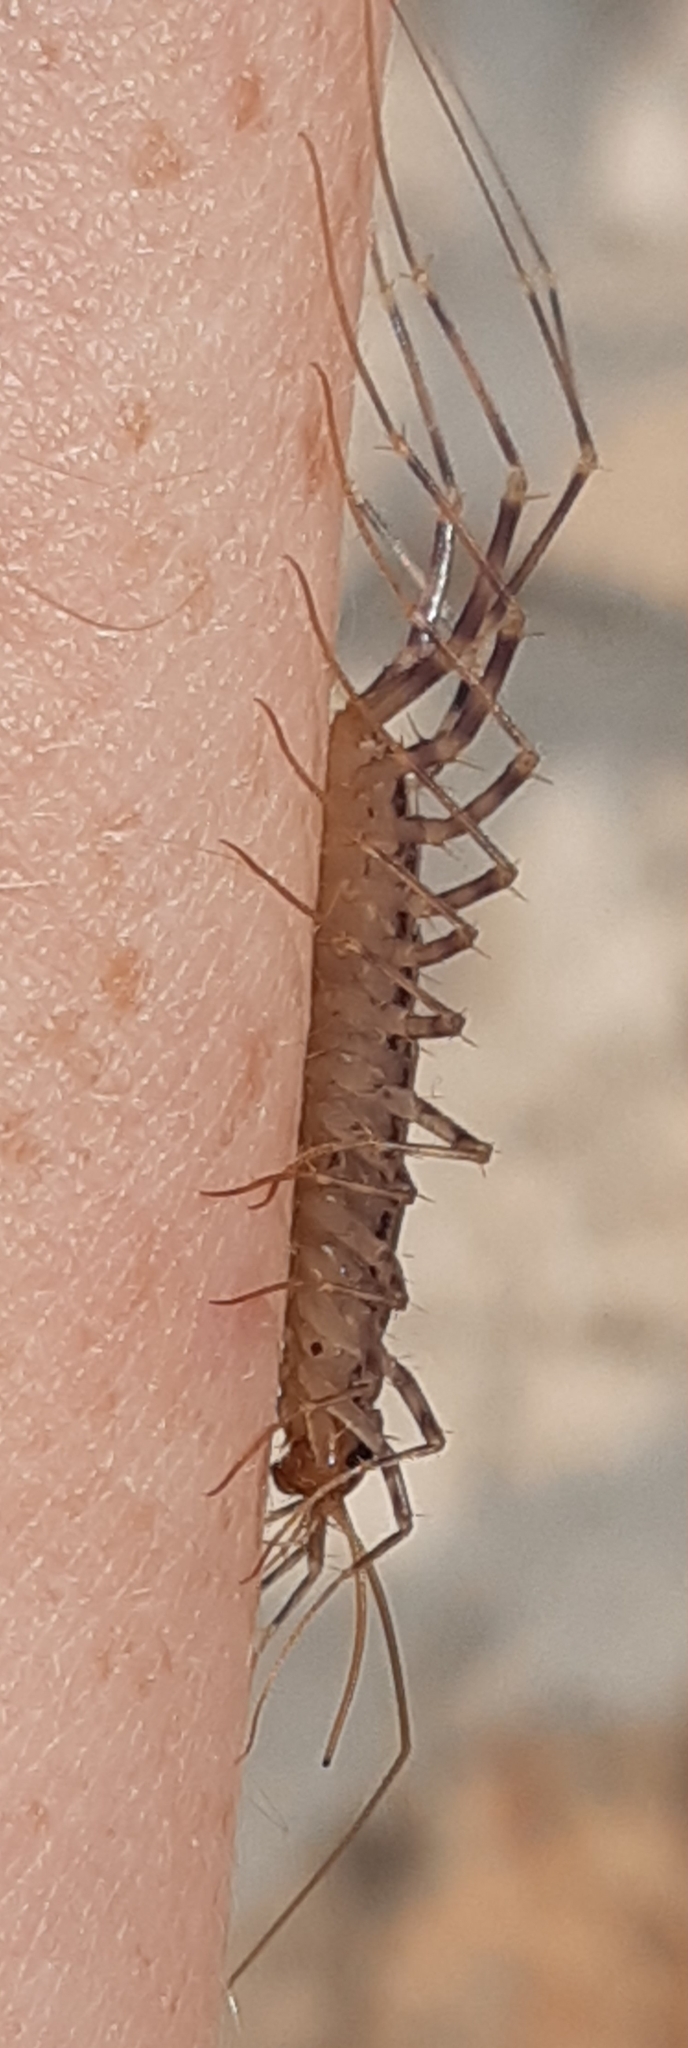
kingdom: Animalia
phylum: Arthropoda
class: Chilopoda
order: Scutigeromorpha
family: Scutigeridae
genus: Scutigera
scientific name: Scutigera coleoptrata
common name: House centipede
